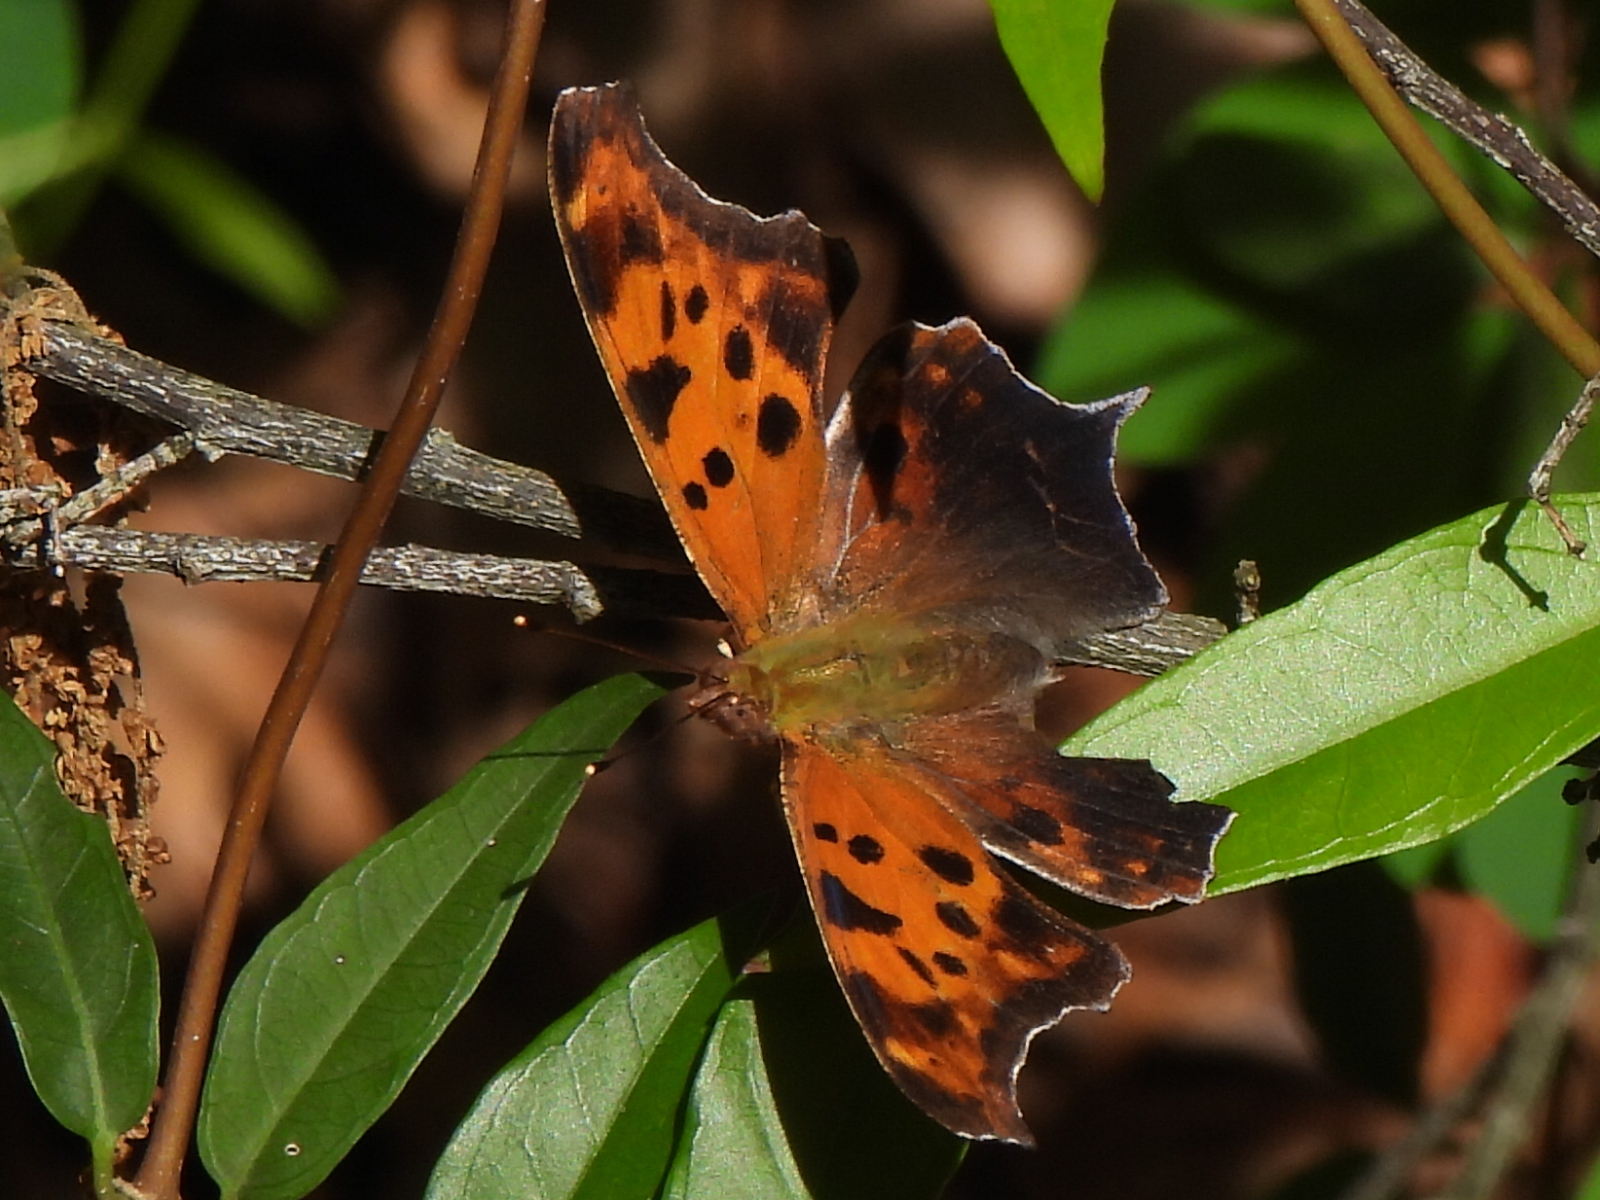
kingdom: Animalia
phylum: Arthropoda
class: Insecta
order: Lepidoptera
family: Nymphalidae
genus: Polygonia
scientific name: Polygonia interrogationis
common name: Question mark
